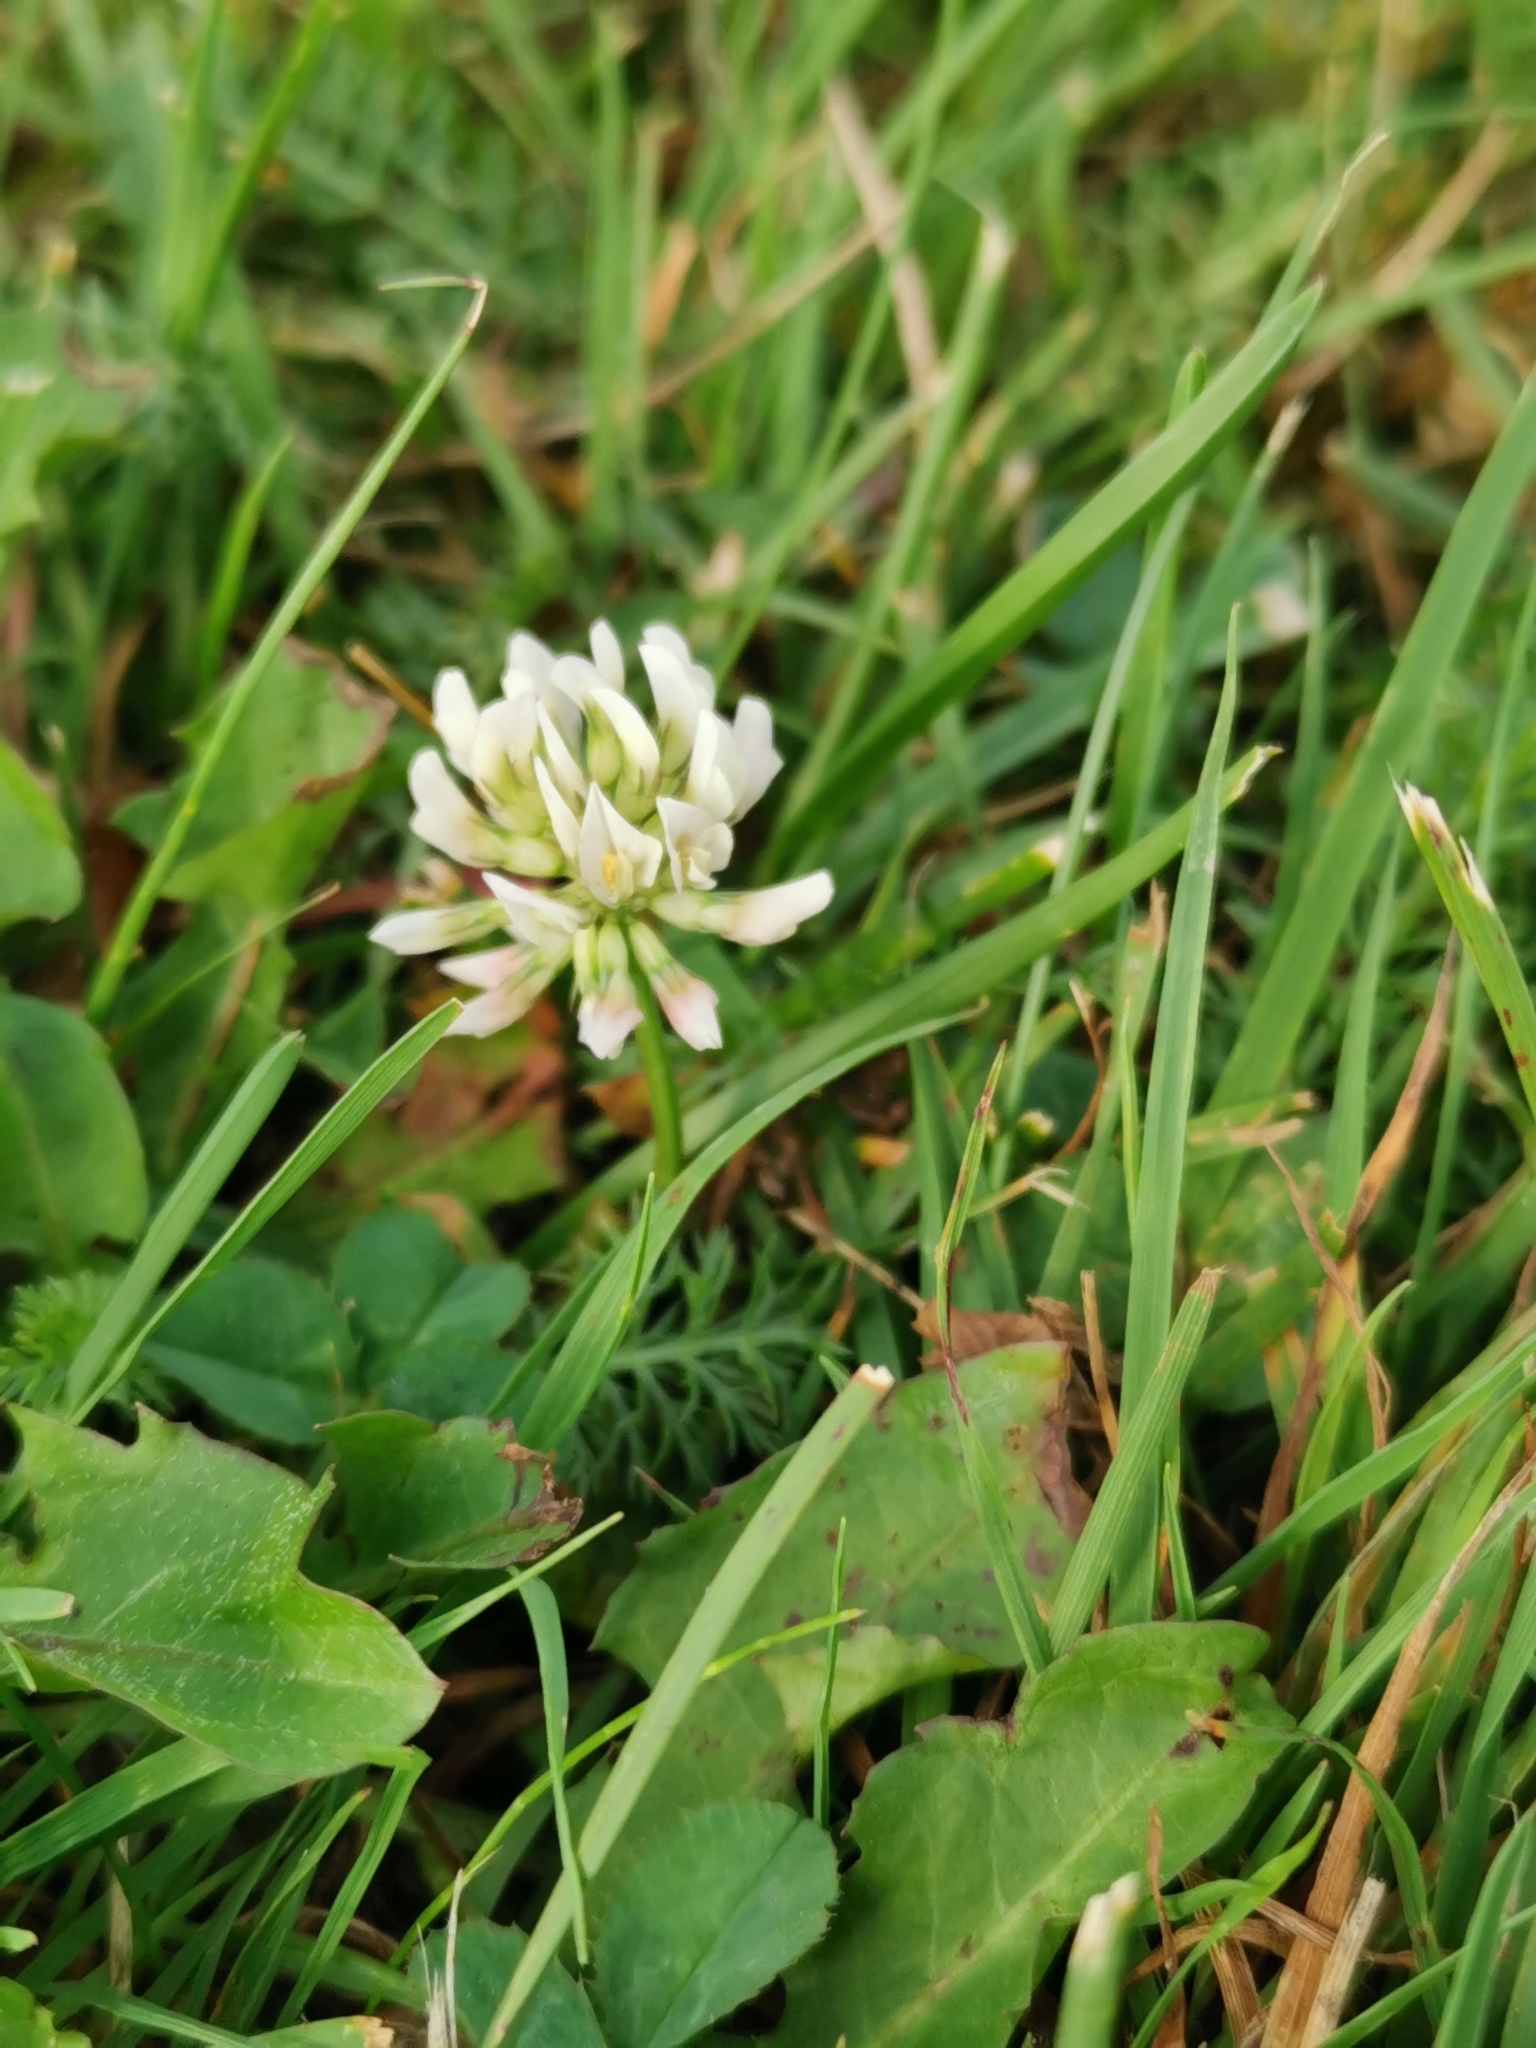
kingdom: Plantae
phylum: Tracheophyta
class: Magnoliopsida
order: Fabales
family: Fabaceae
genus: Trifolium
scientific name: Trifolium repens
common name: White clover
